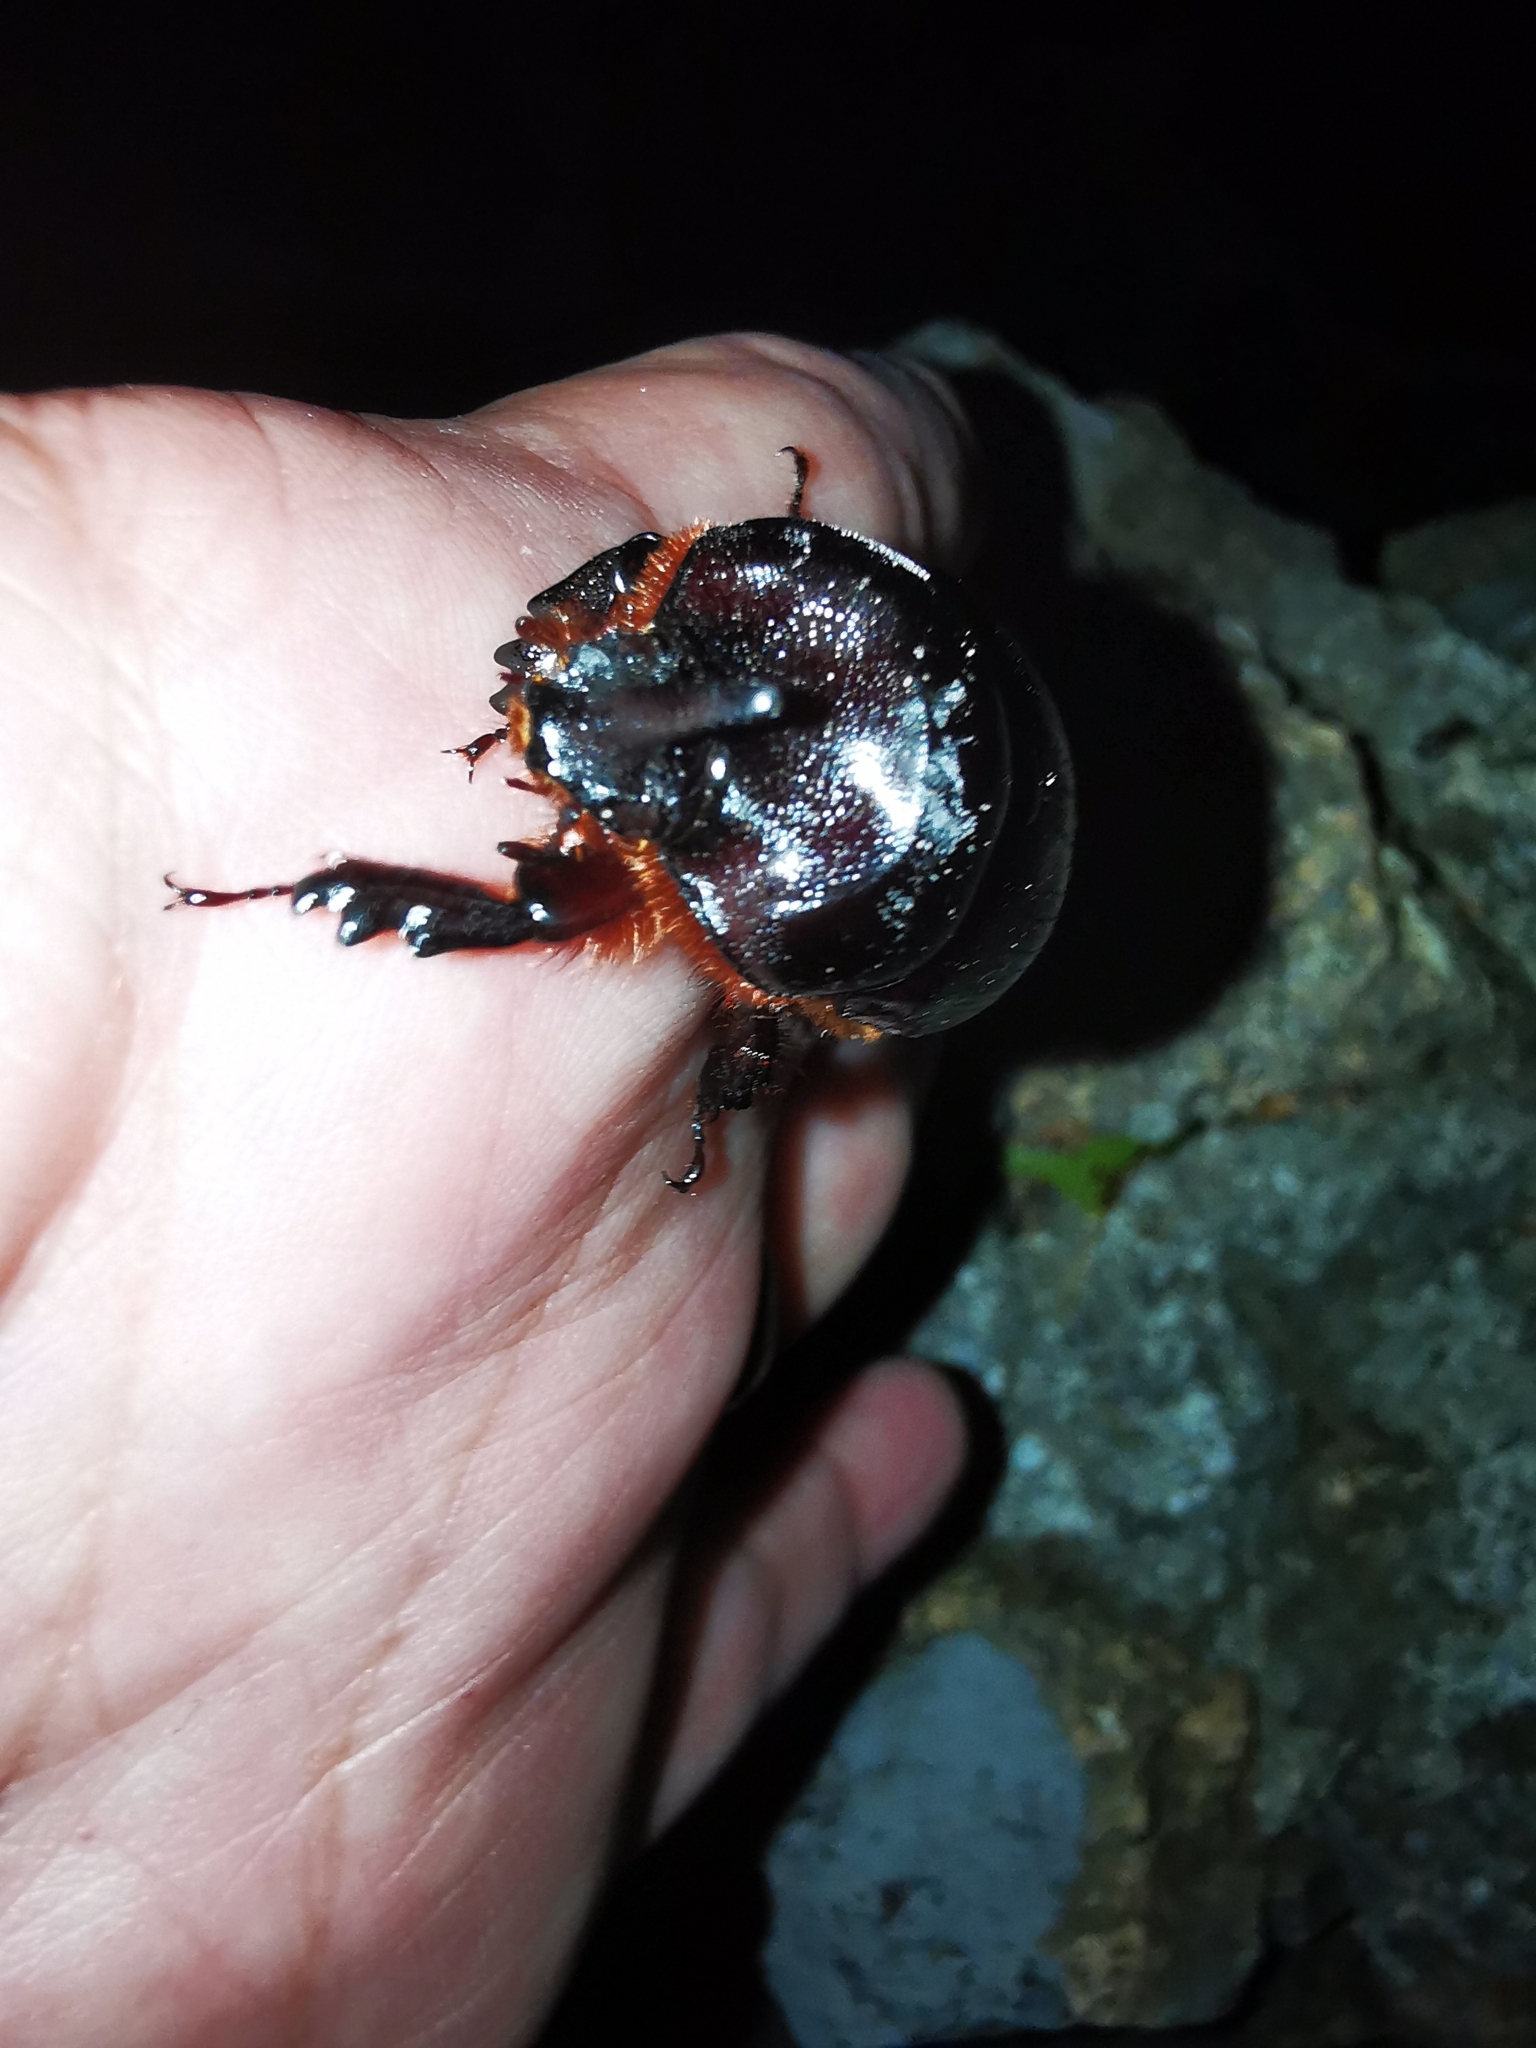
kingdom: Animalia
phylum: Arthropoda
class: Insecta
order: Coleoptera
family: Scarabaeidae
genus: Xyloryctes
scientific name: Xyloryctes orientalis
